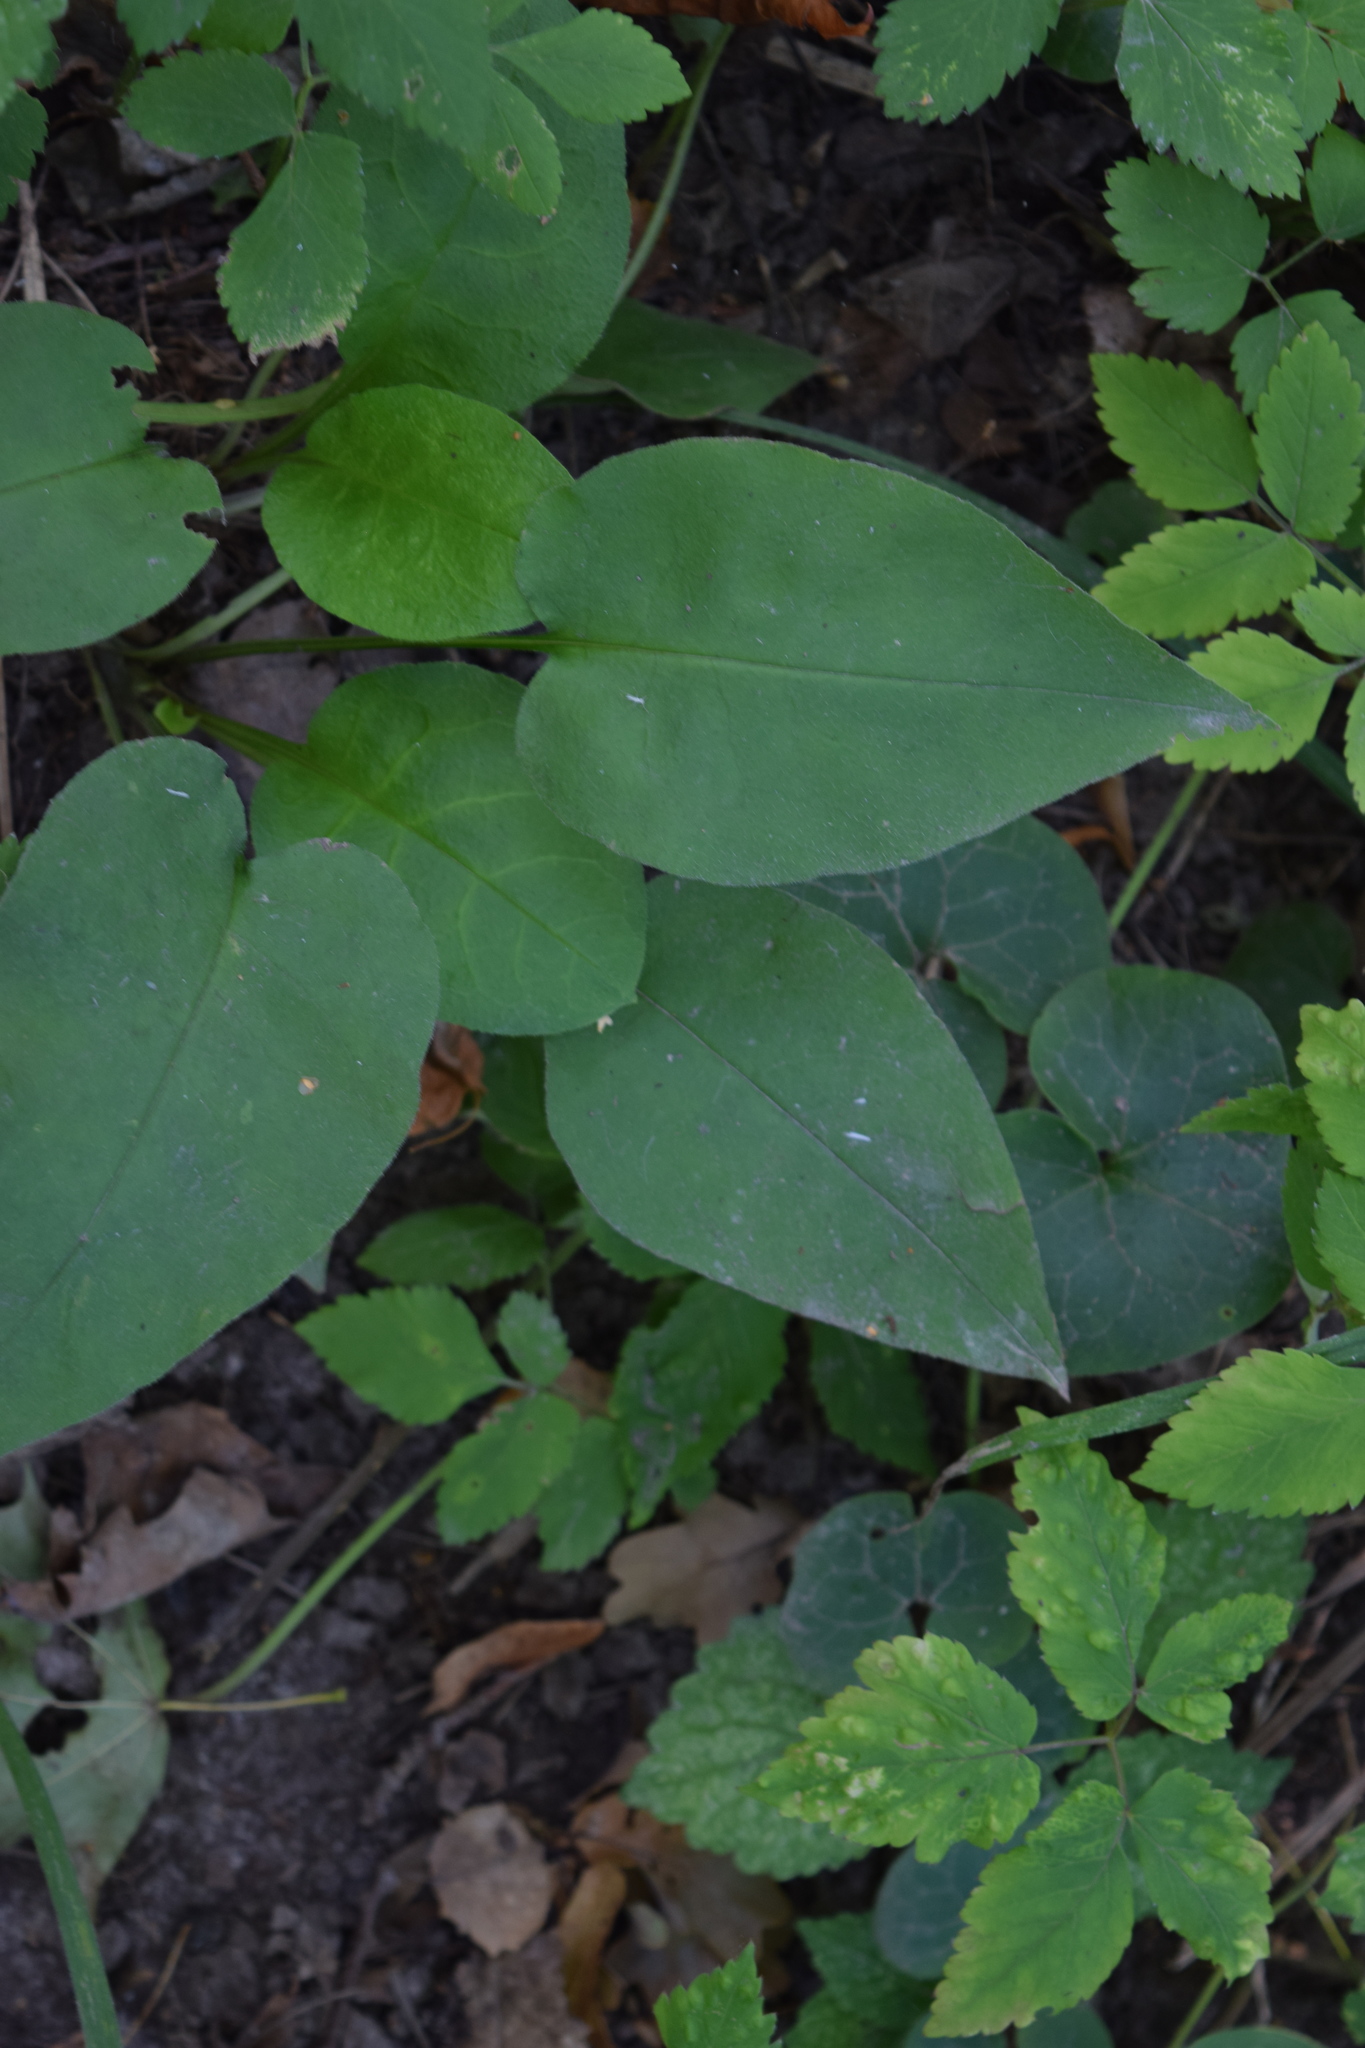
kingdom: Plantae
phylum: Tracheophyta
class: Magnoliopsida
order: Boraginales
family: Boraginaceae
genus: Pulmonaria
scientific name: Pulmonaria obscura
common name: Suffolk lungwort
